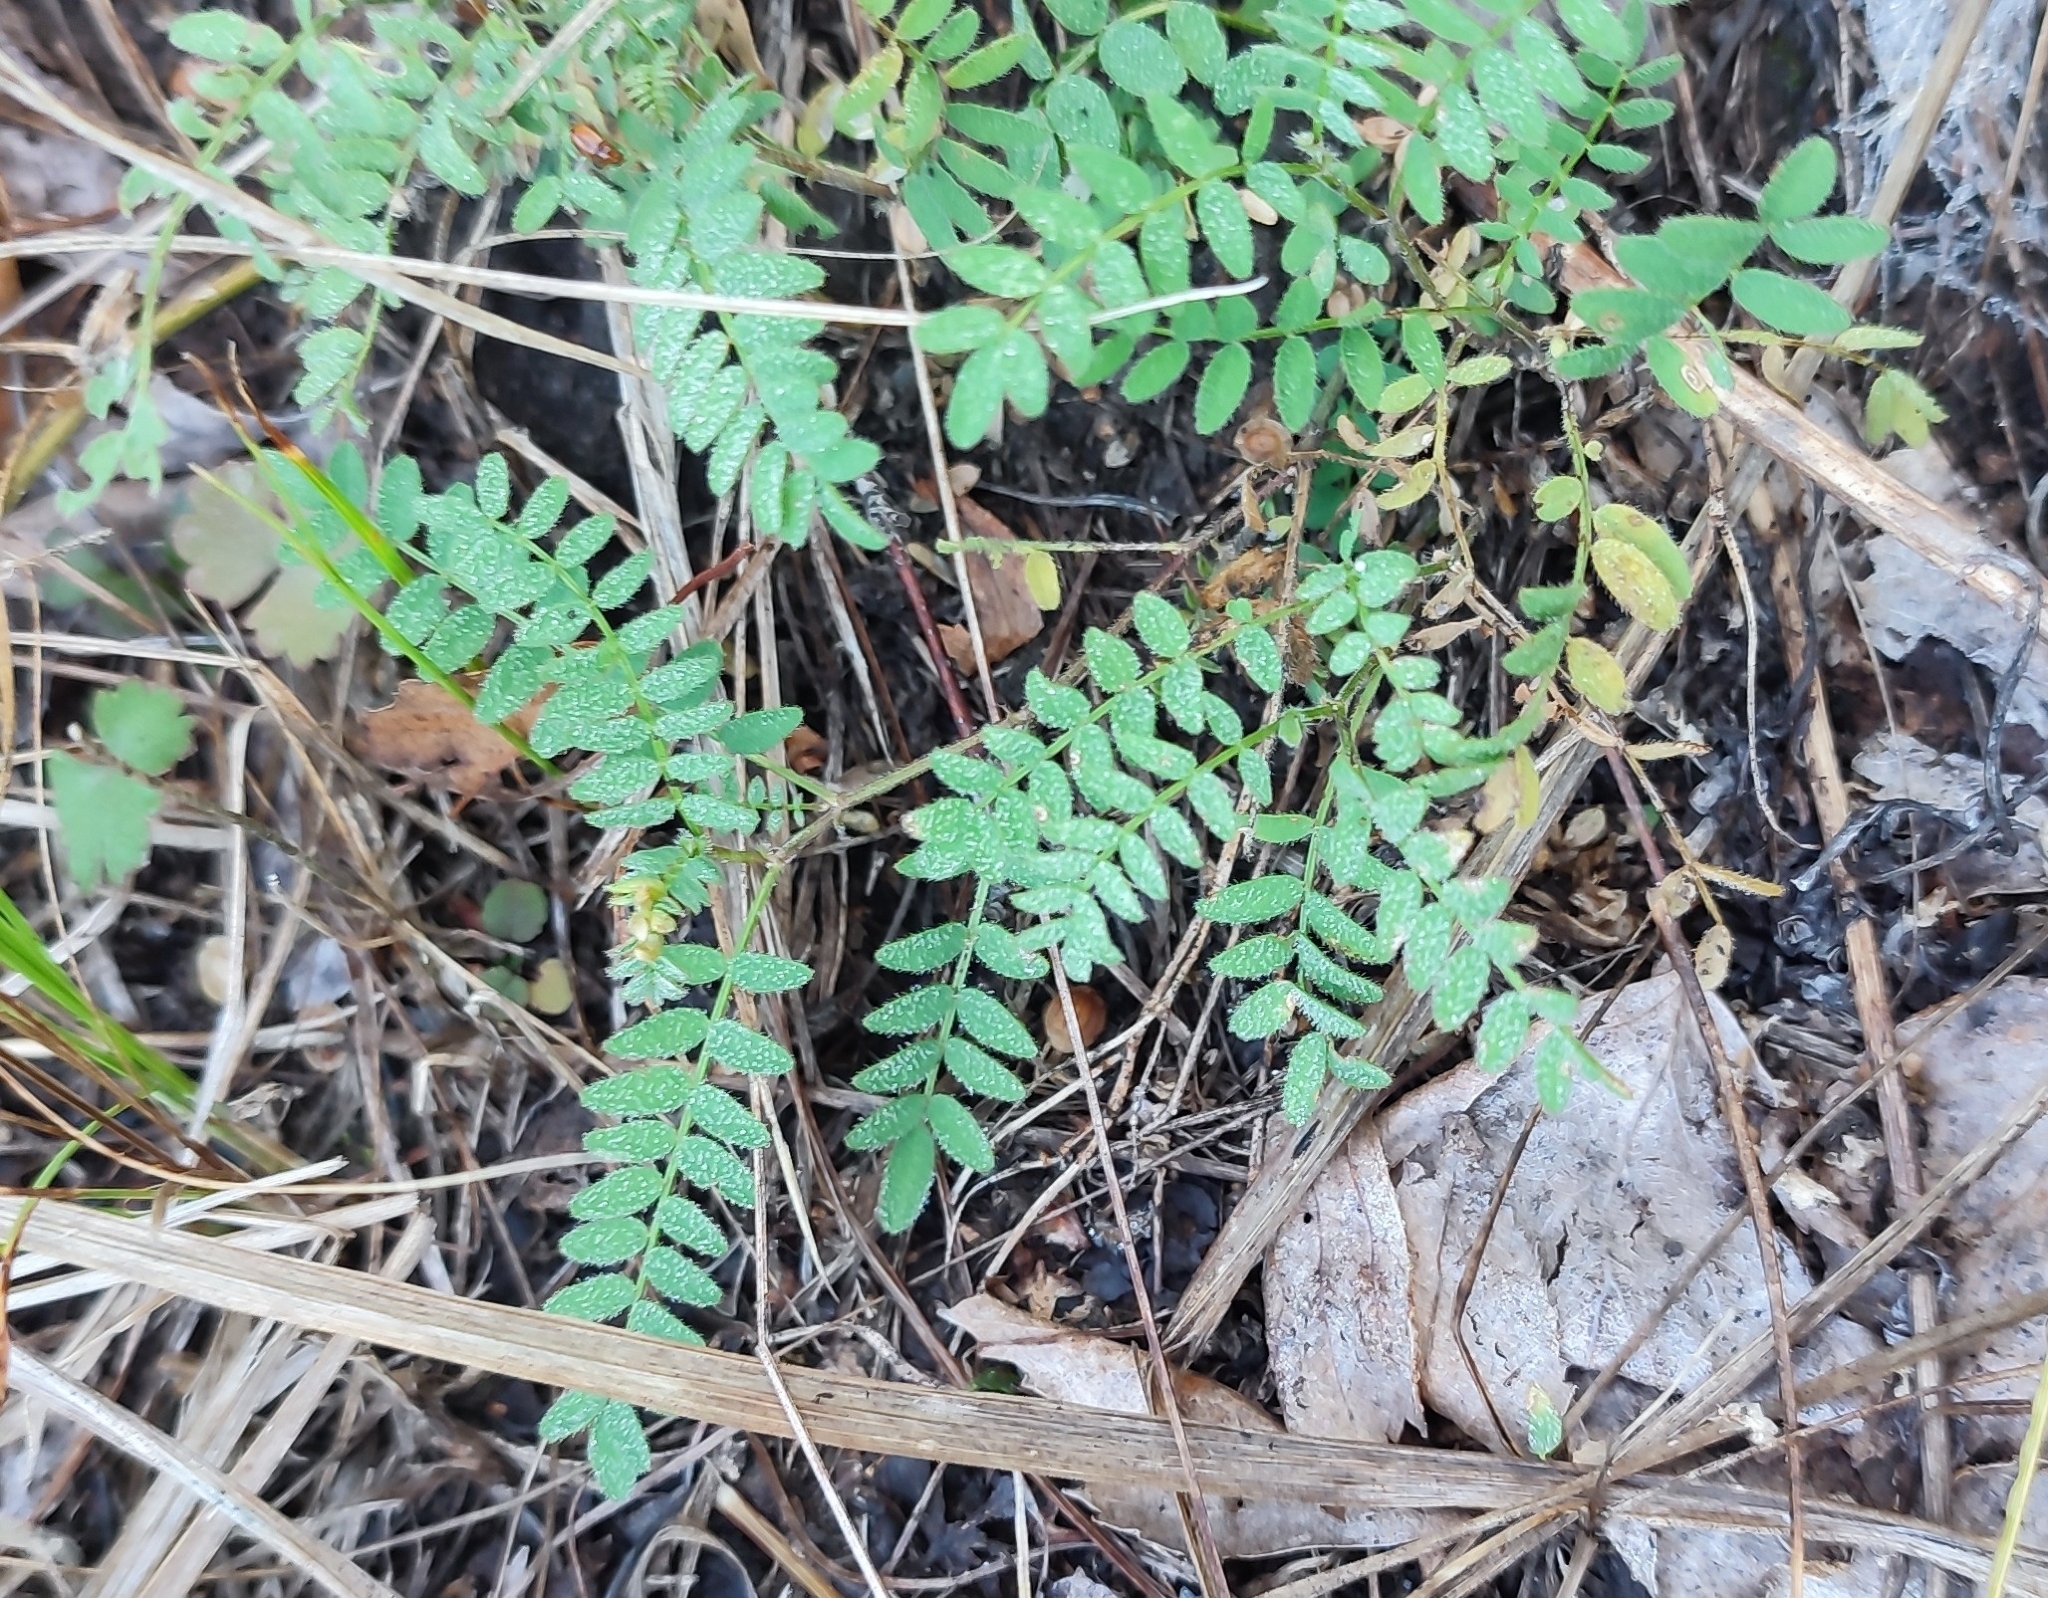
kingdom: Plantae
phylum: Tracheophyta
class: Magnoliopsida
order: Fabales
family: Fabaceae
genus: Astragalus
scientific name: Astragalus danicus
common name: Purple milk-vetch
